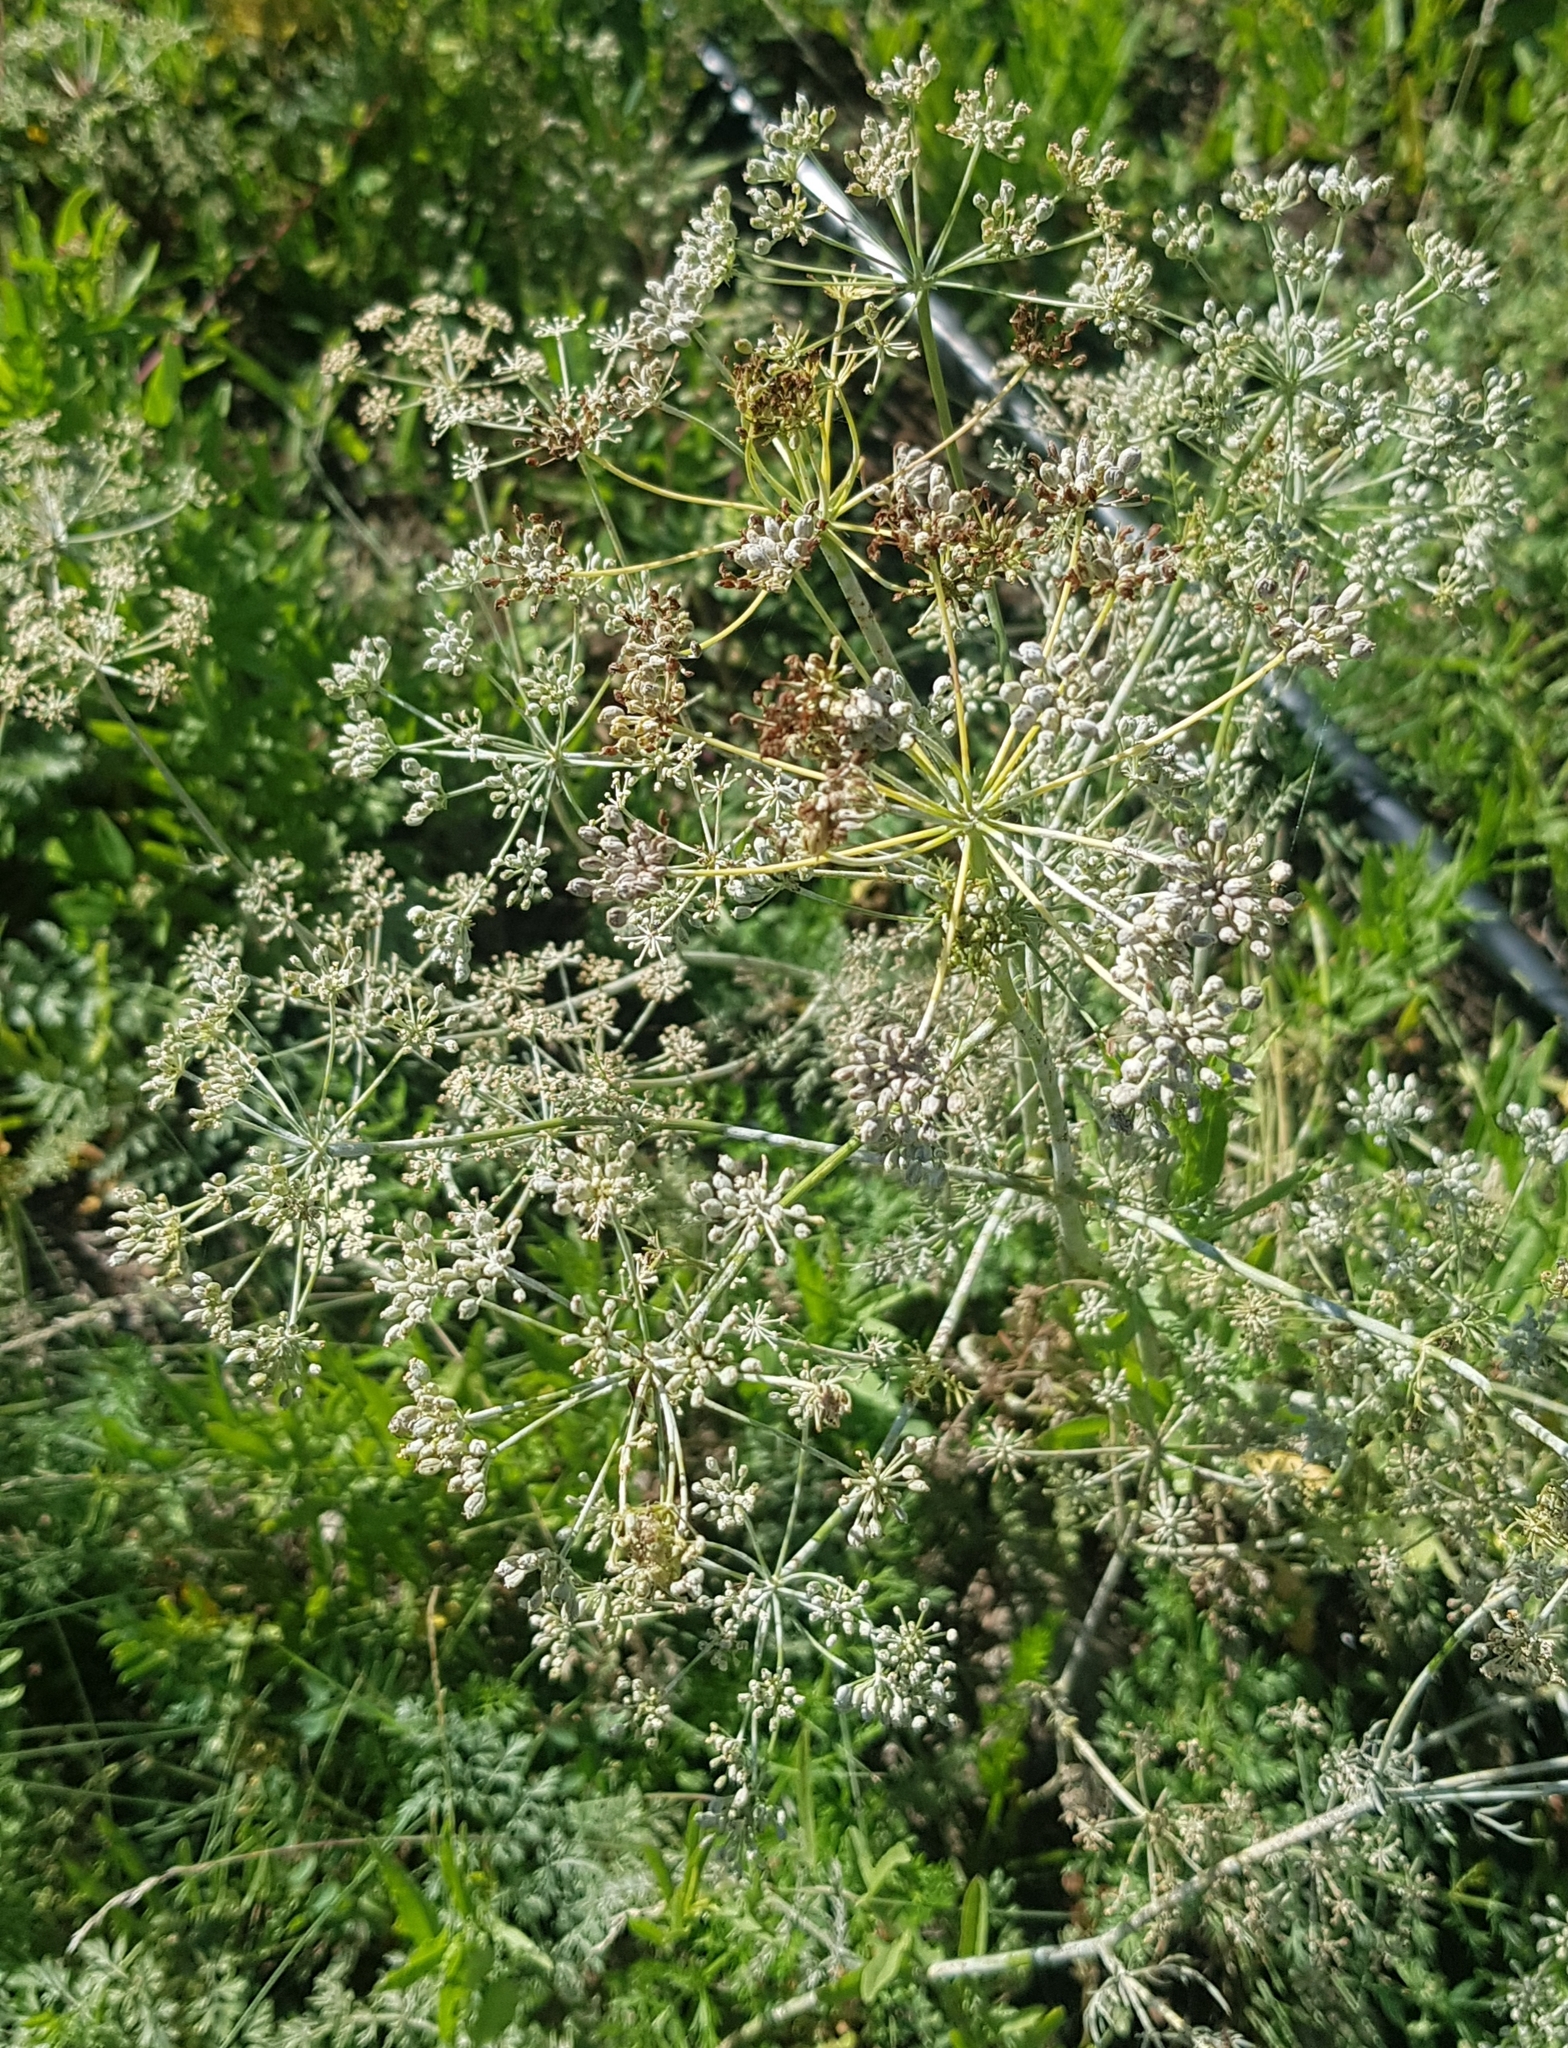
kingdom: Plantae
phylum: Tracheophyta
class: Magnoliopsida
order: Apiales
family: Apiaceae
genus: Carum
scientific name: Carum buriaticum
